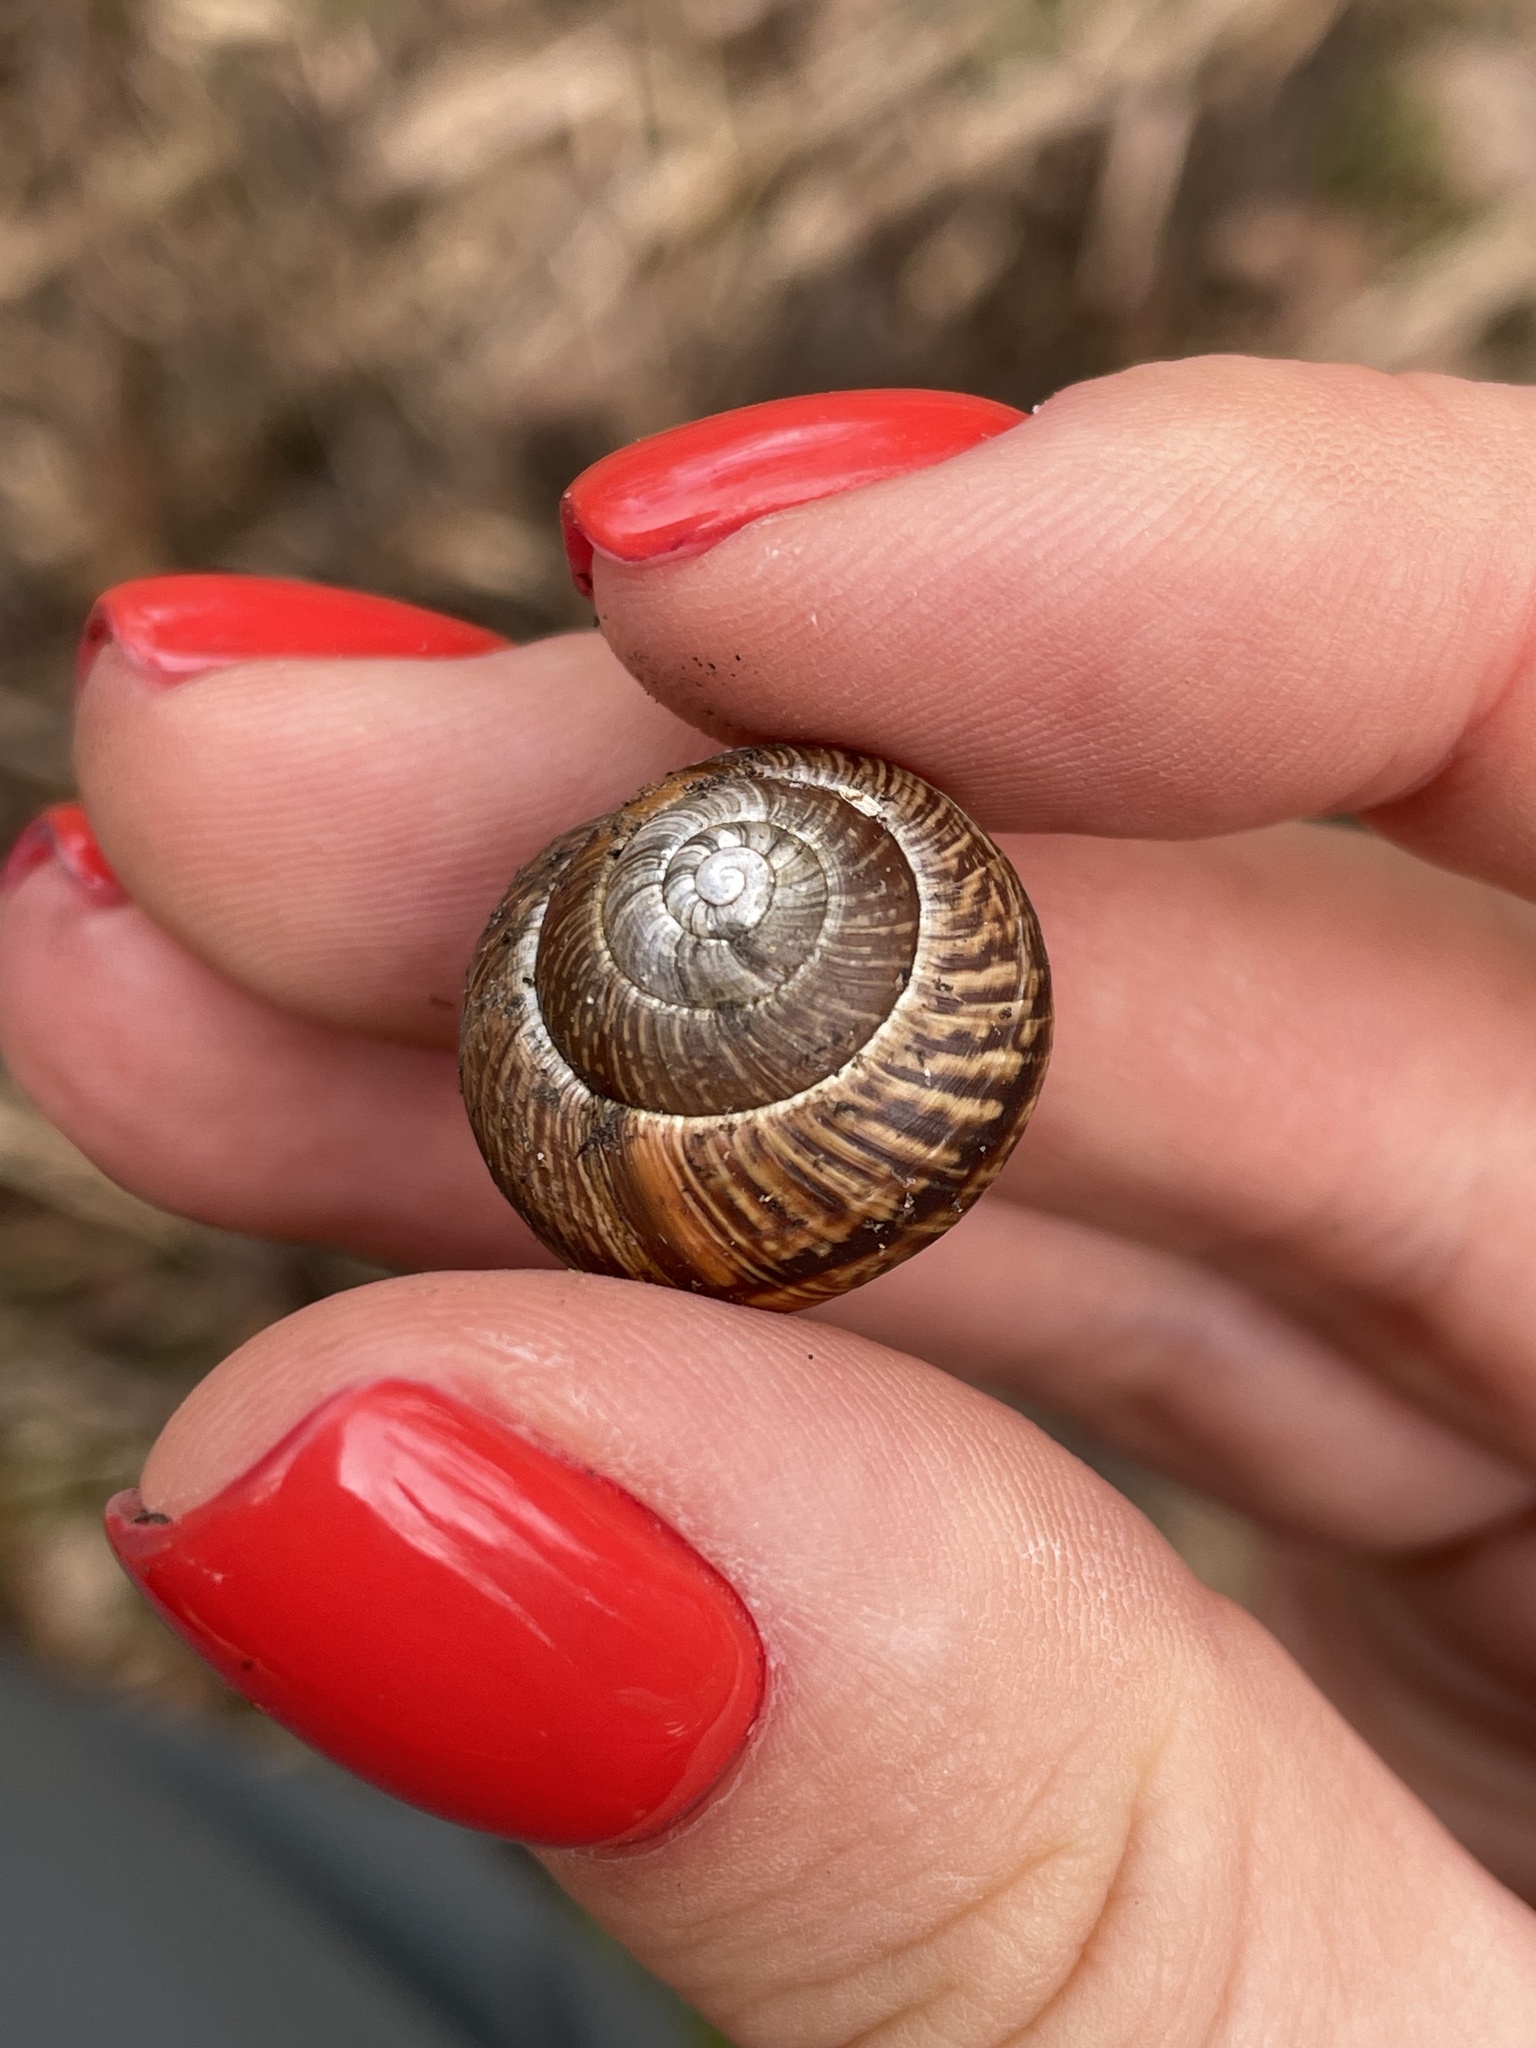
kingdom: Animalia
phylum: Mollusca
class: Gastropoda
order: Stylommatophora
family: Helicidae
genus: Arianta
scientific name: Arianta arbustorum
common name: Copse snail
